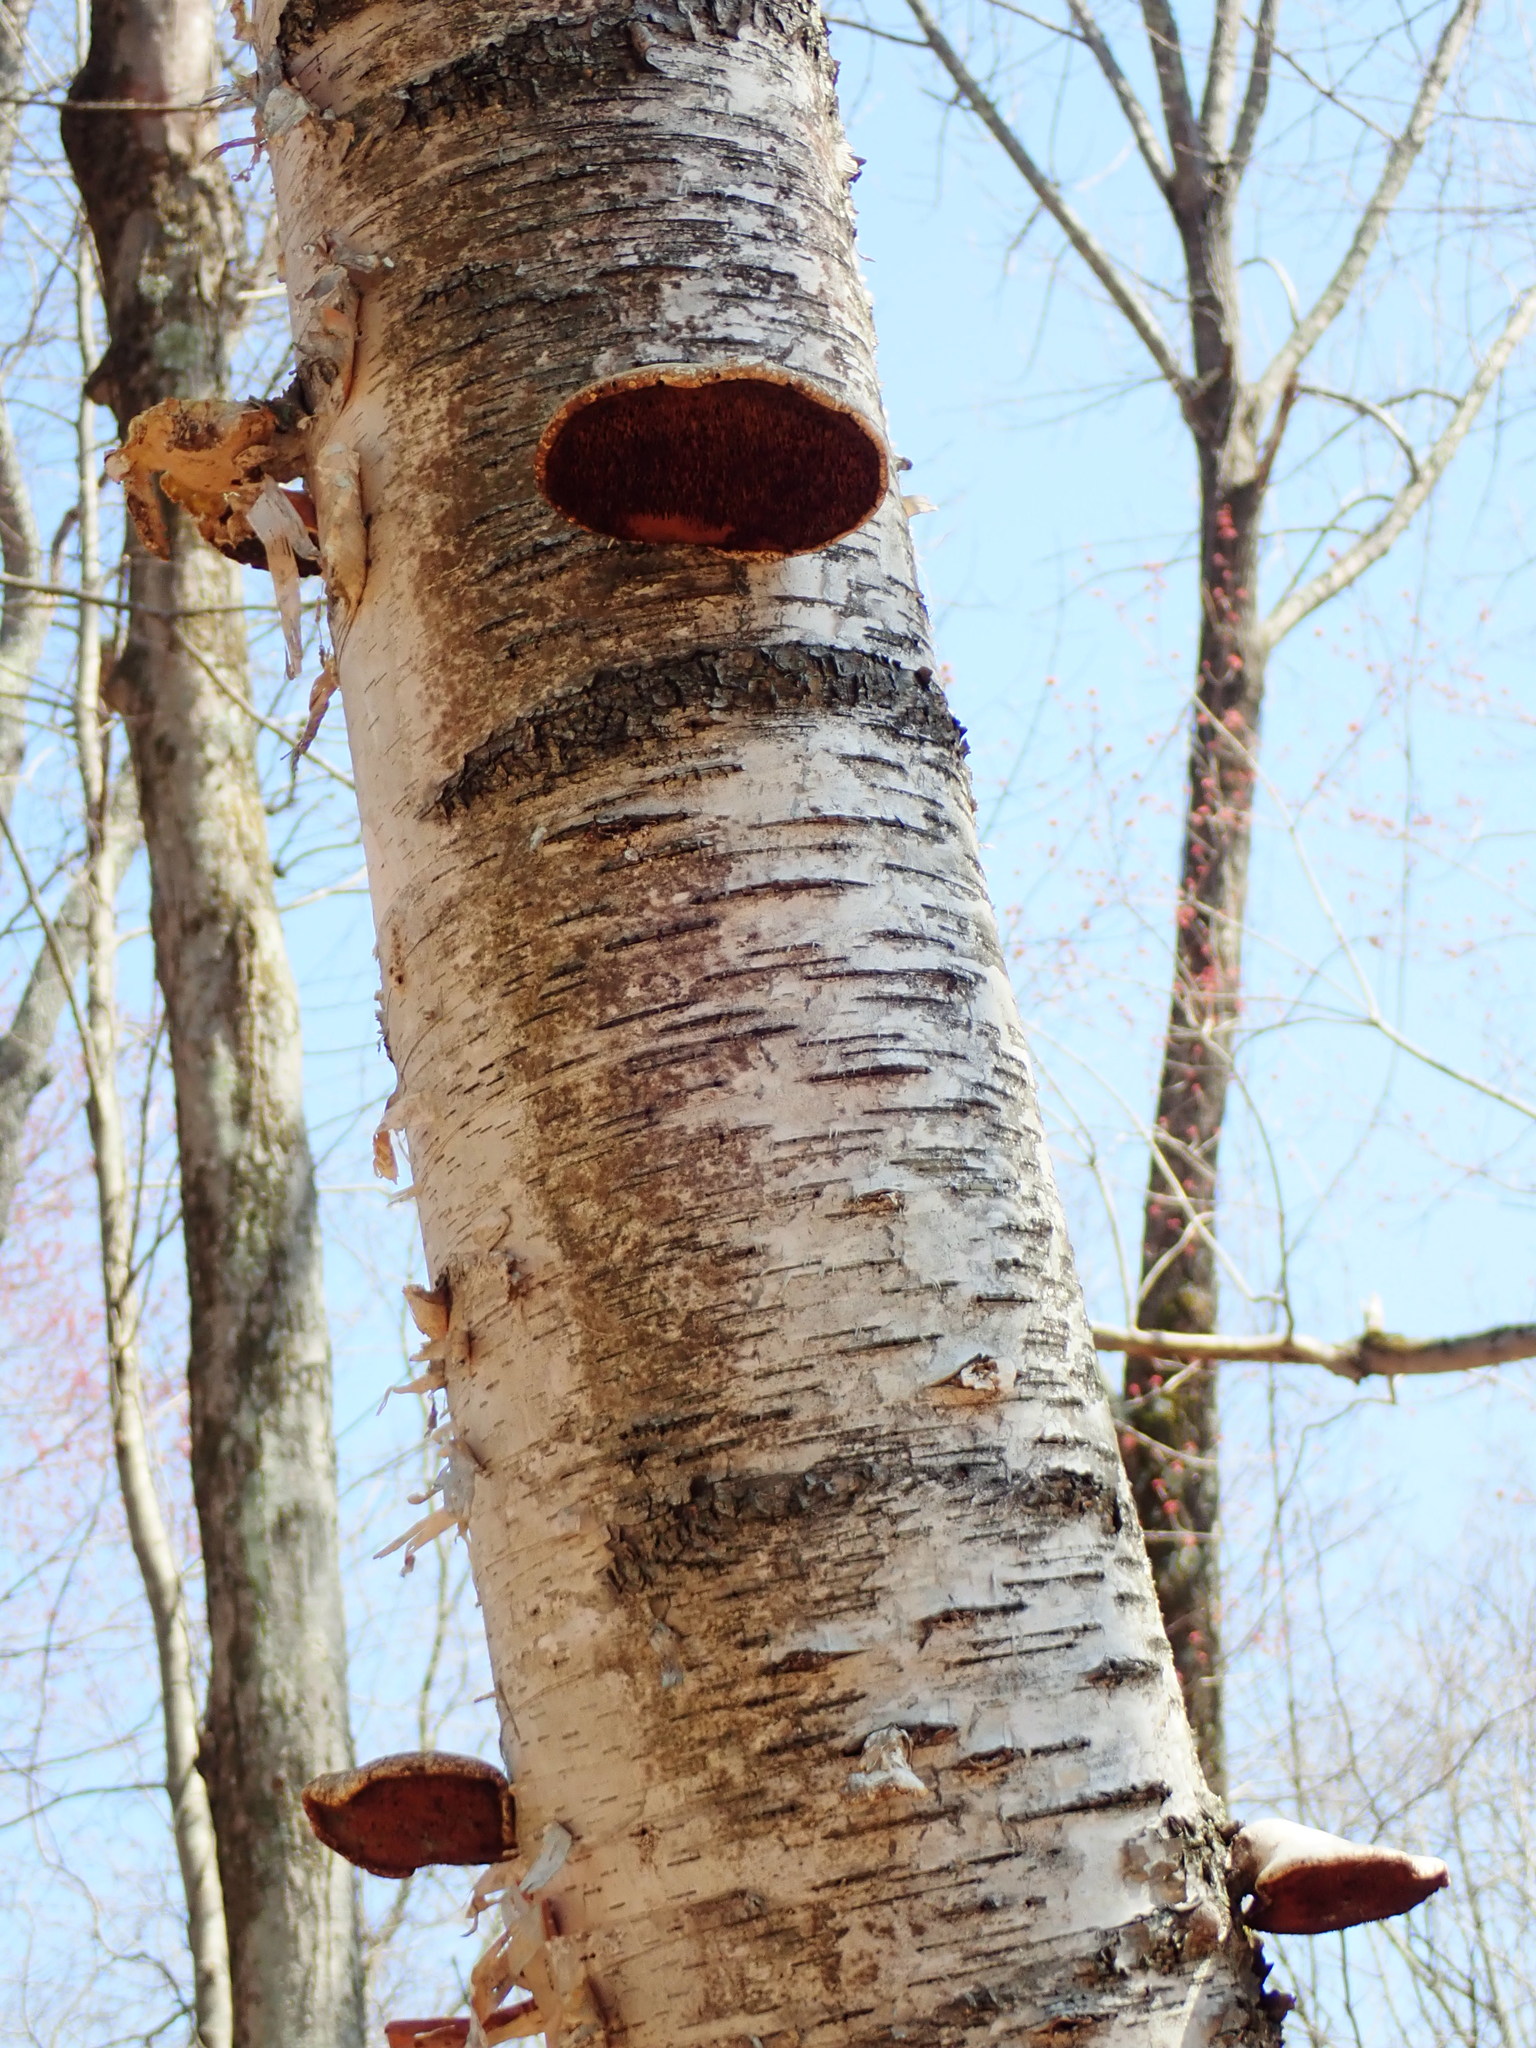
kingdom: Fungi
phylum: Basidiomycota
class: Agaricomycetes
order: Polyporales
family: Fomitopsidaceae
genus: Fomitopsis
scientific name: Fomitopsis betulina
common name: Birch polypore
